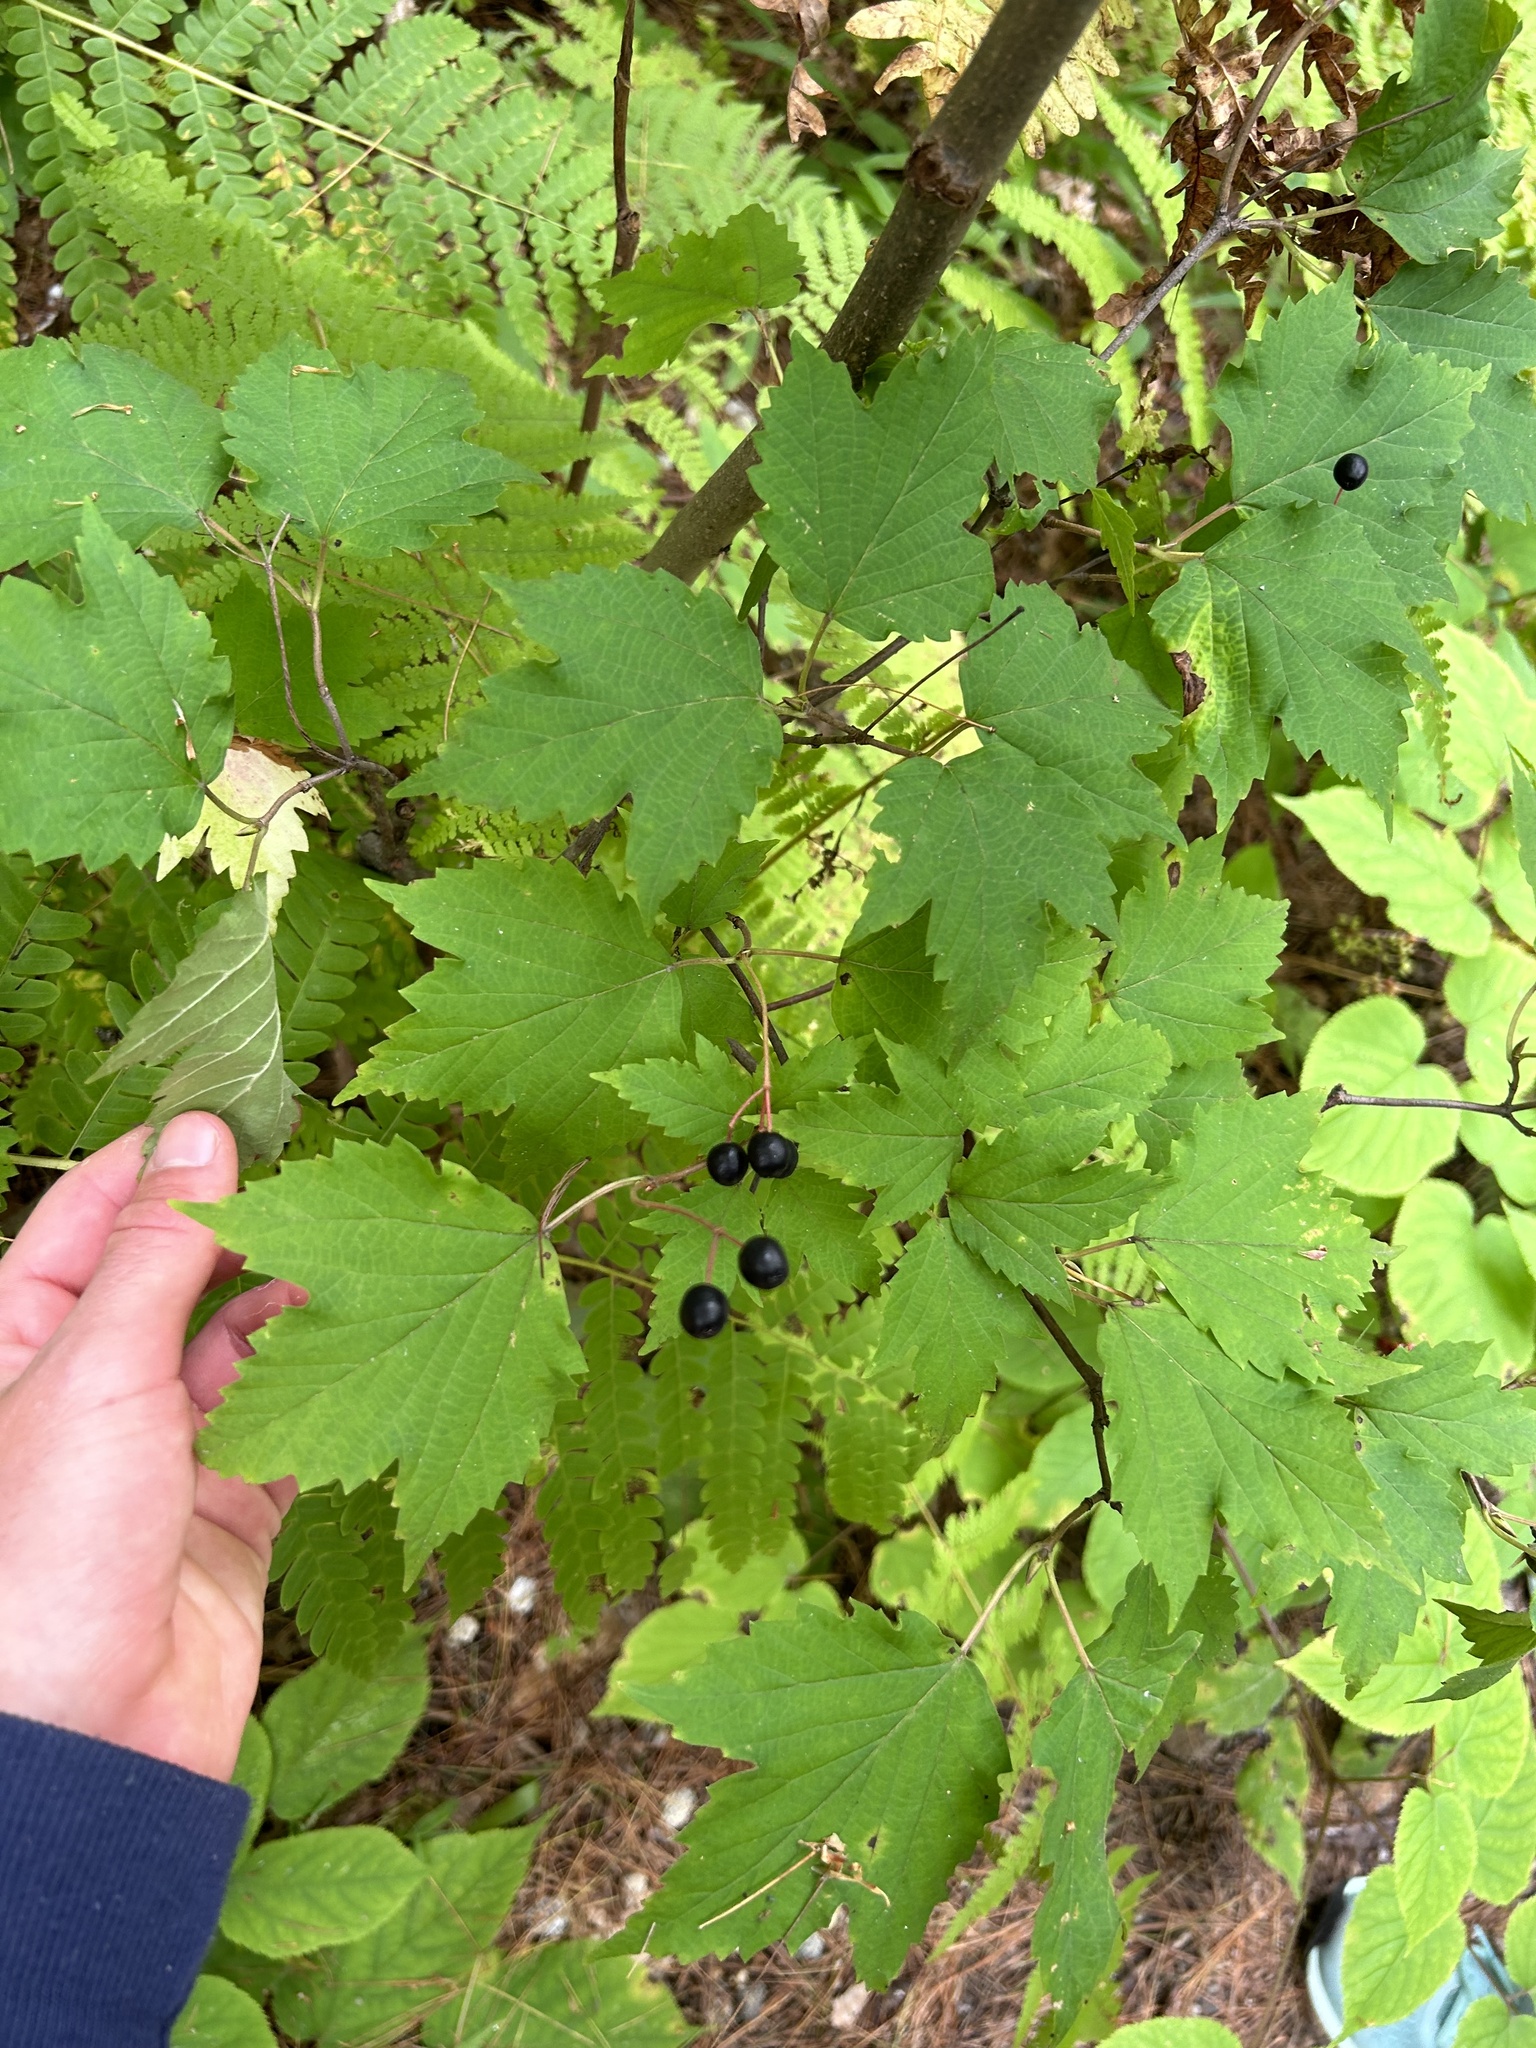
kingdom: Plantae
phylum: Tracheophyta
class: Magnoliopsida
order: Dipsacales
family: Viburnaceae
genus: Viburnum
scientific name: Viburnum acerifolium
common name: Dockmackie
